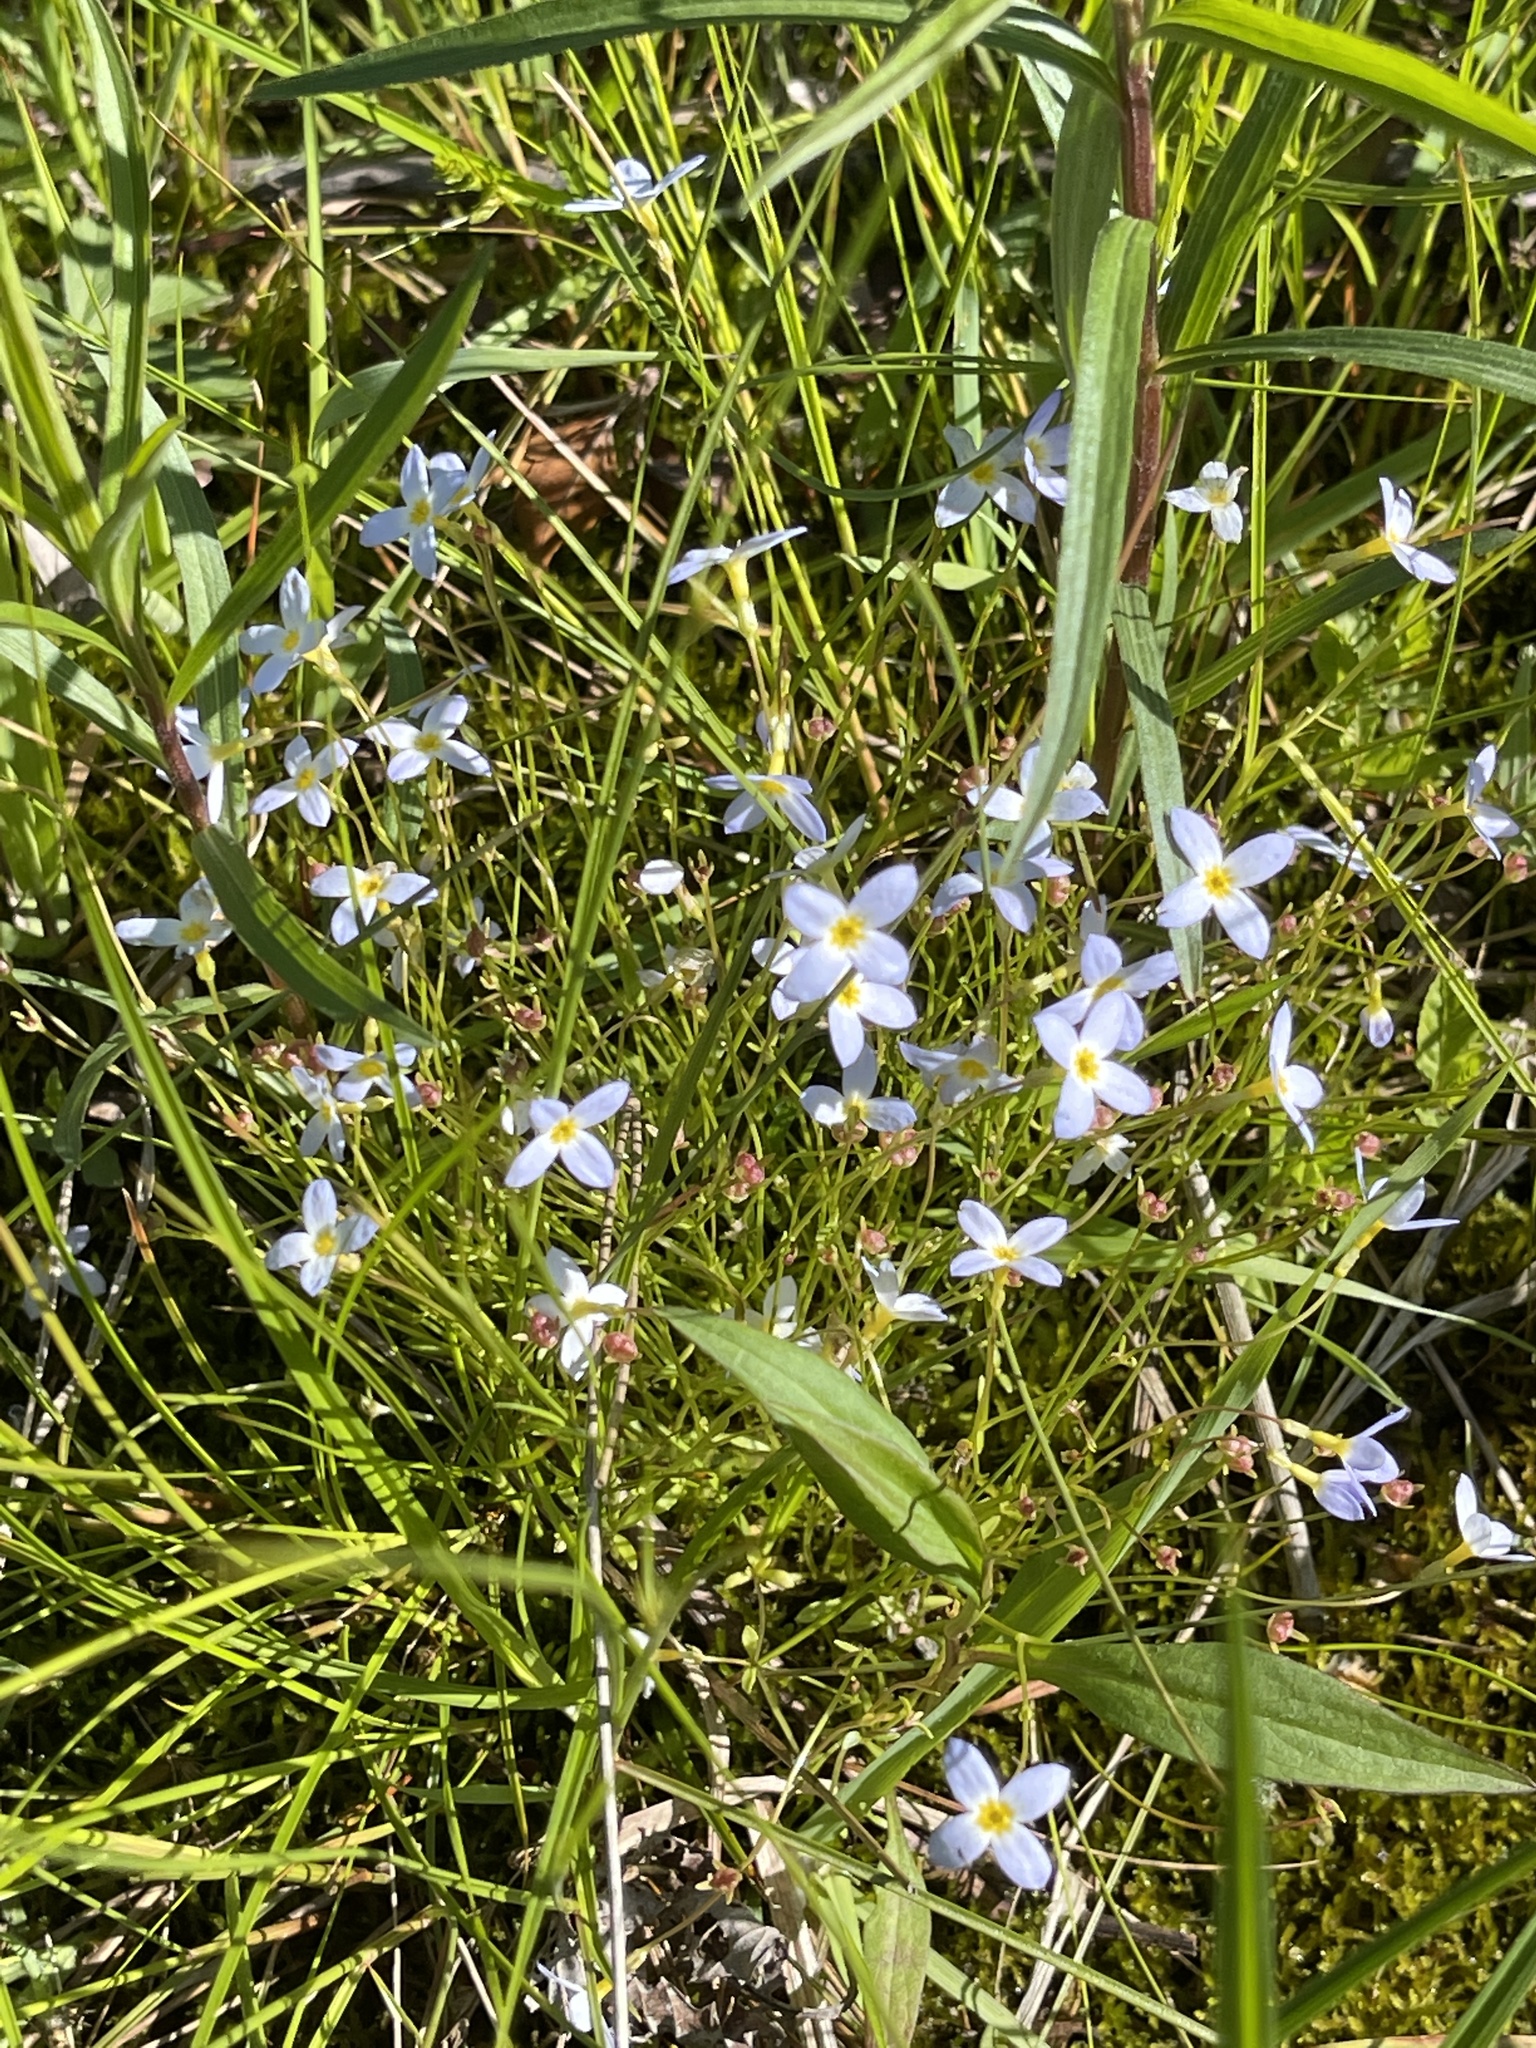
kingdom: Plantae
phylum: Tracheophyta
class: Magnoliopsida
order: Gentianales
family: Rubiaceae
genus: Houstonia
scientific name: Houstonia caerulea
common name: Bluets
